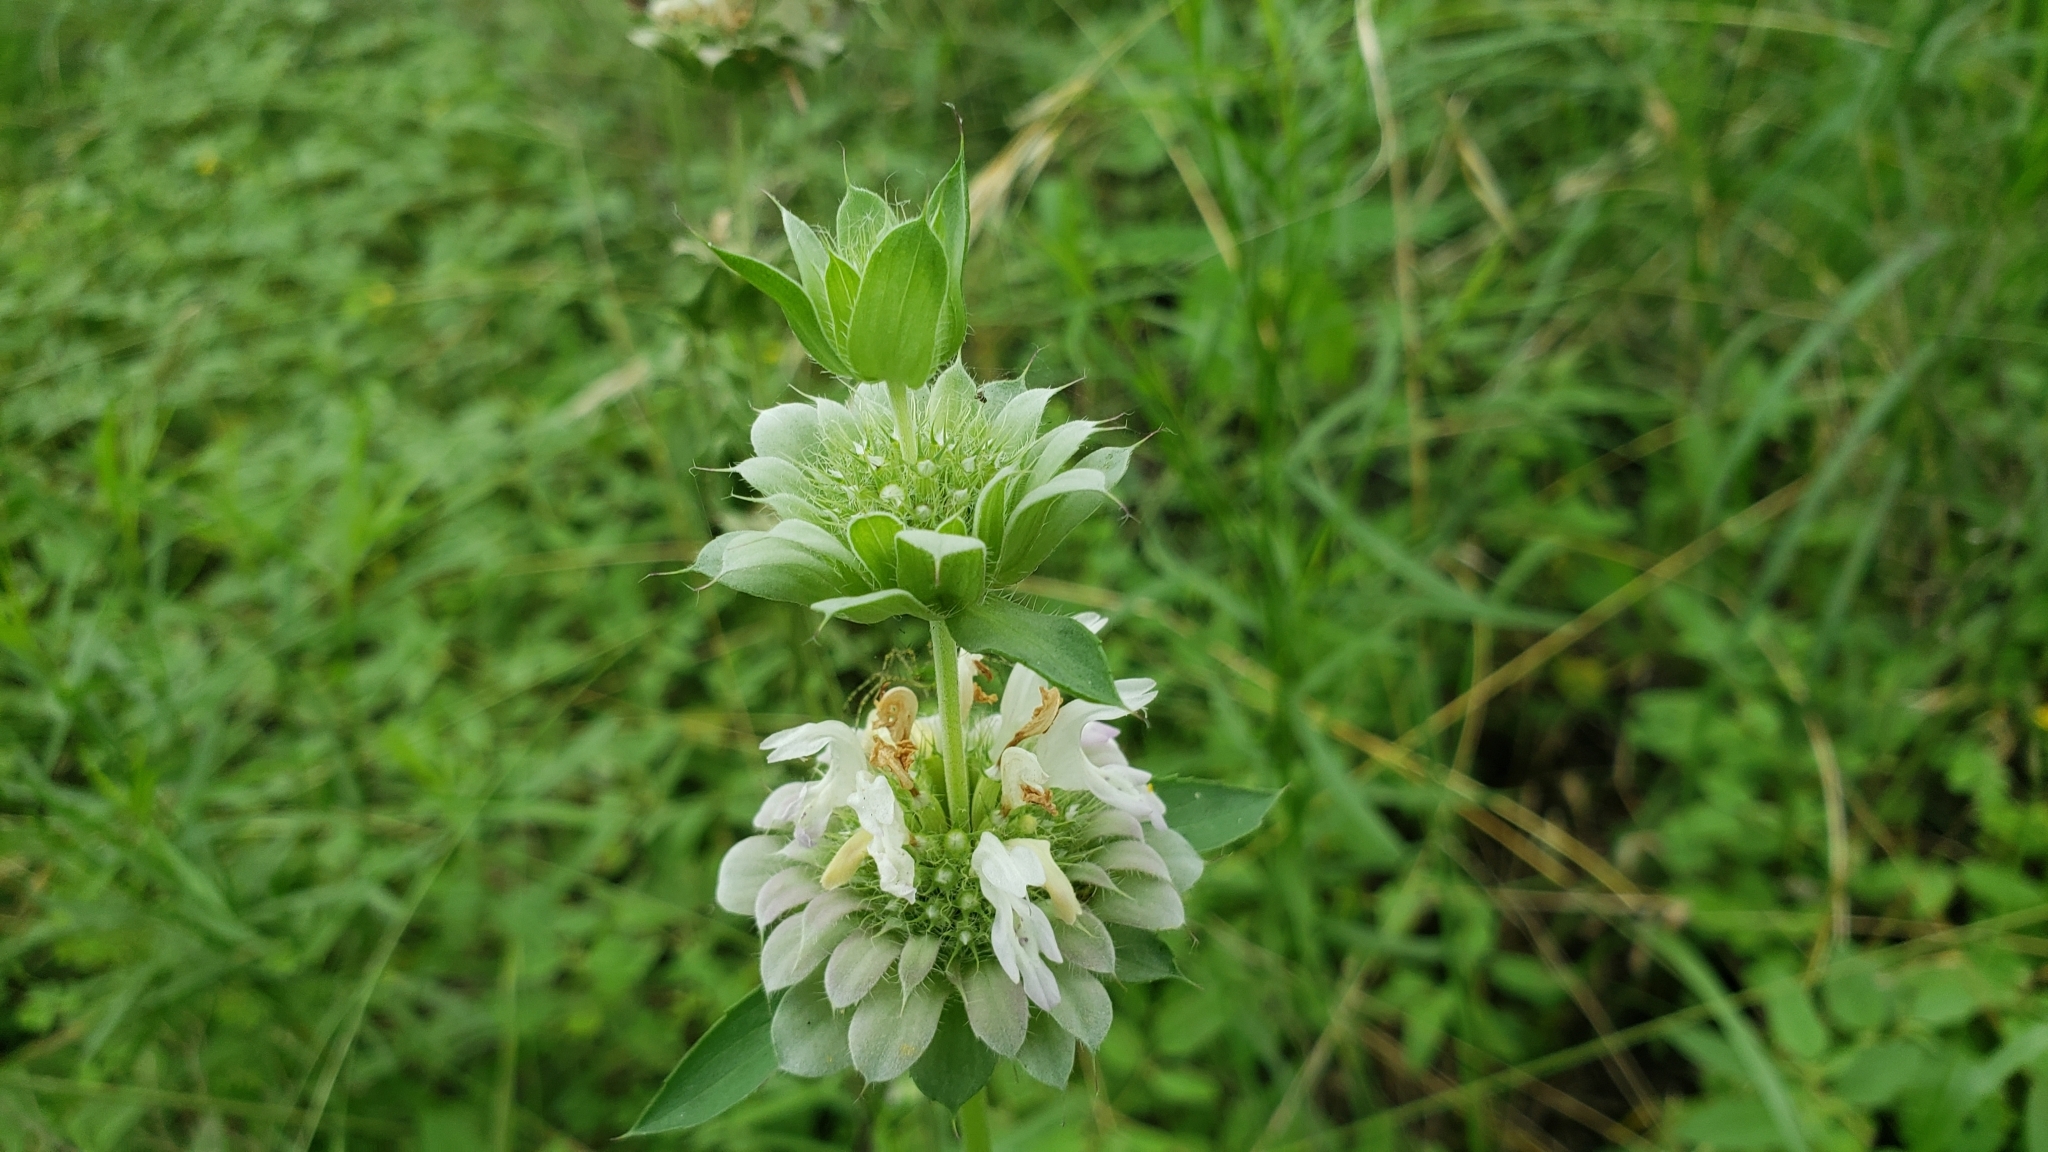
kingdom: Plantae
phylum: Tracheophyta
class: Magnoliopsida
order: Lamiales
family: Lamiaceae
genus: Monarda
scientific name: Monarda citriodora
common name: Lemon beebalm
